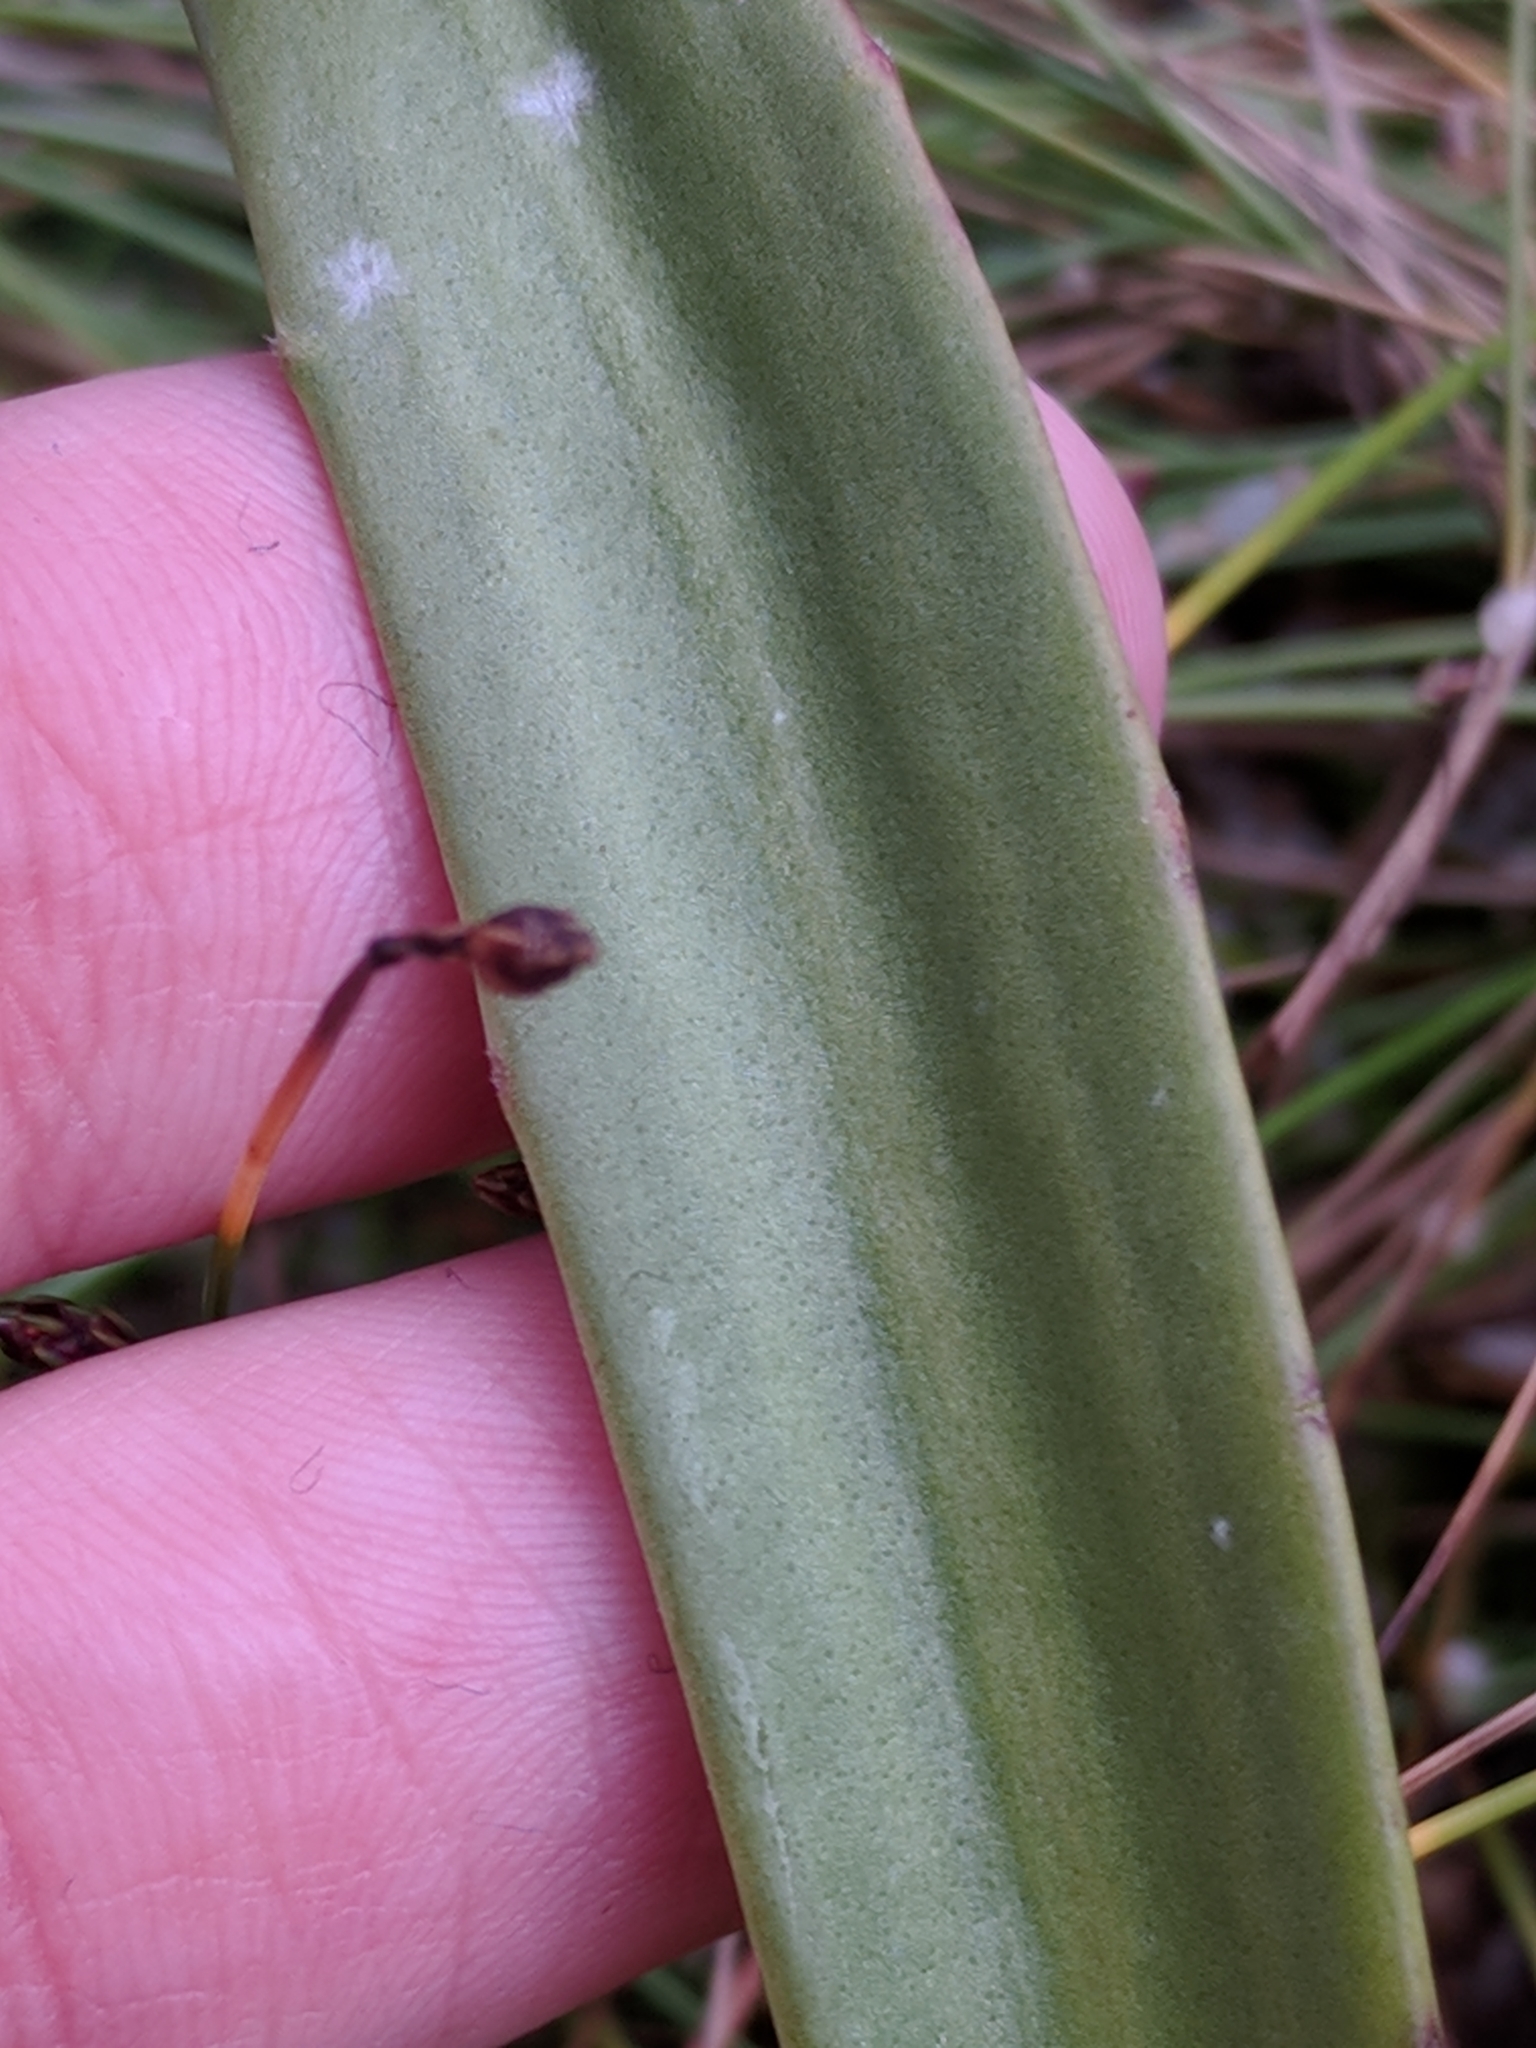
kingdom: Plantae
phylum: Tracheophyta
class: Magnoliopsida
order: Lamiales
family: Plantaginaceae
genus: Plantago
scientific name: Plantago maritima
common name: Sea plantain
